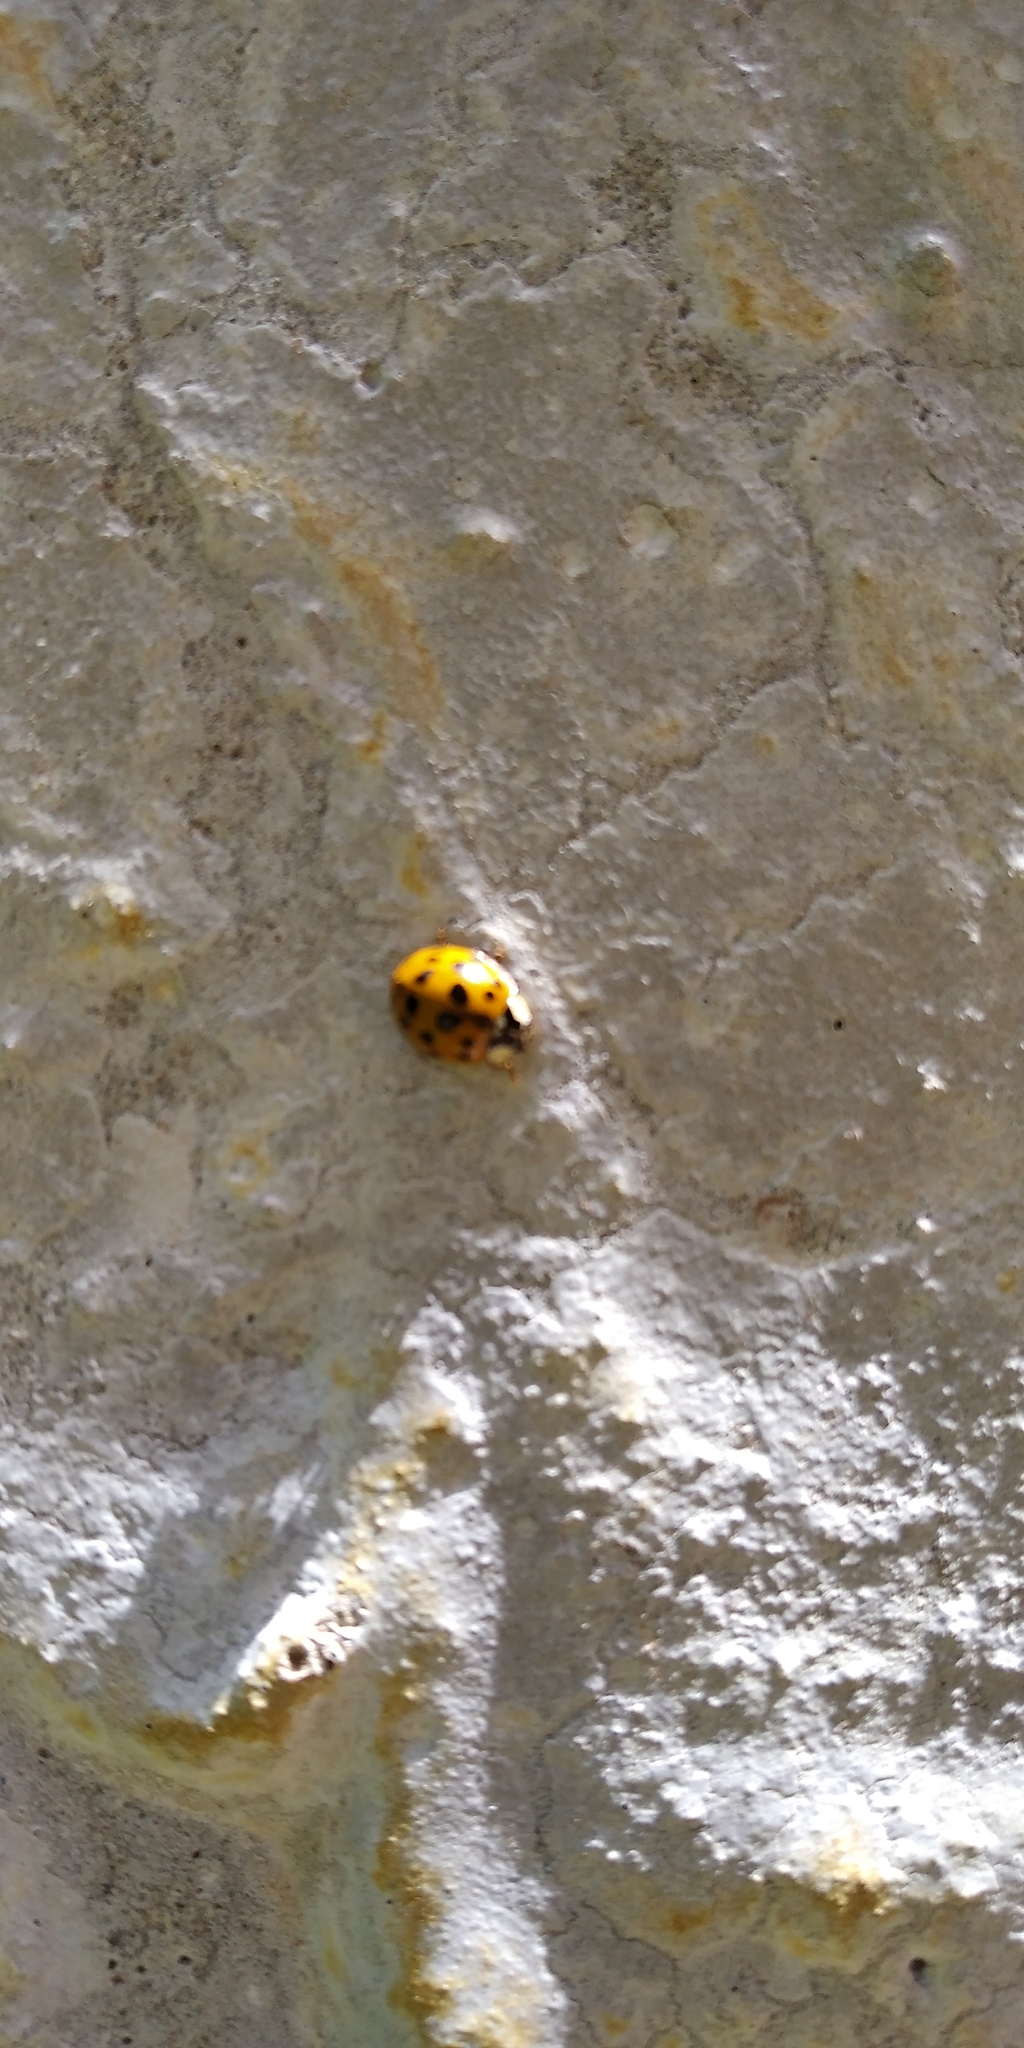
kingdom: Animalia
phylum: Arthropoda
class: Insecta
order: Coleoptera
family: Coccinellidae
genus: Harmonia
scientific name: Harmonia axyridis
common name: Harlequin ladybird
